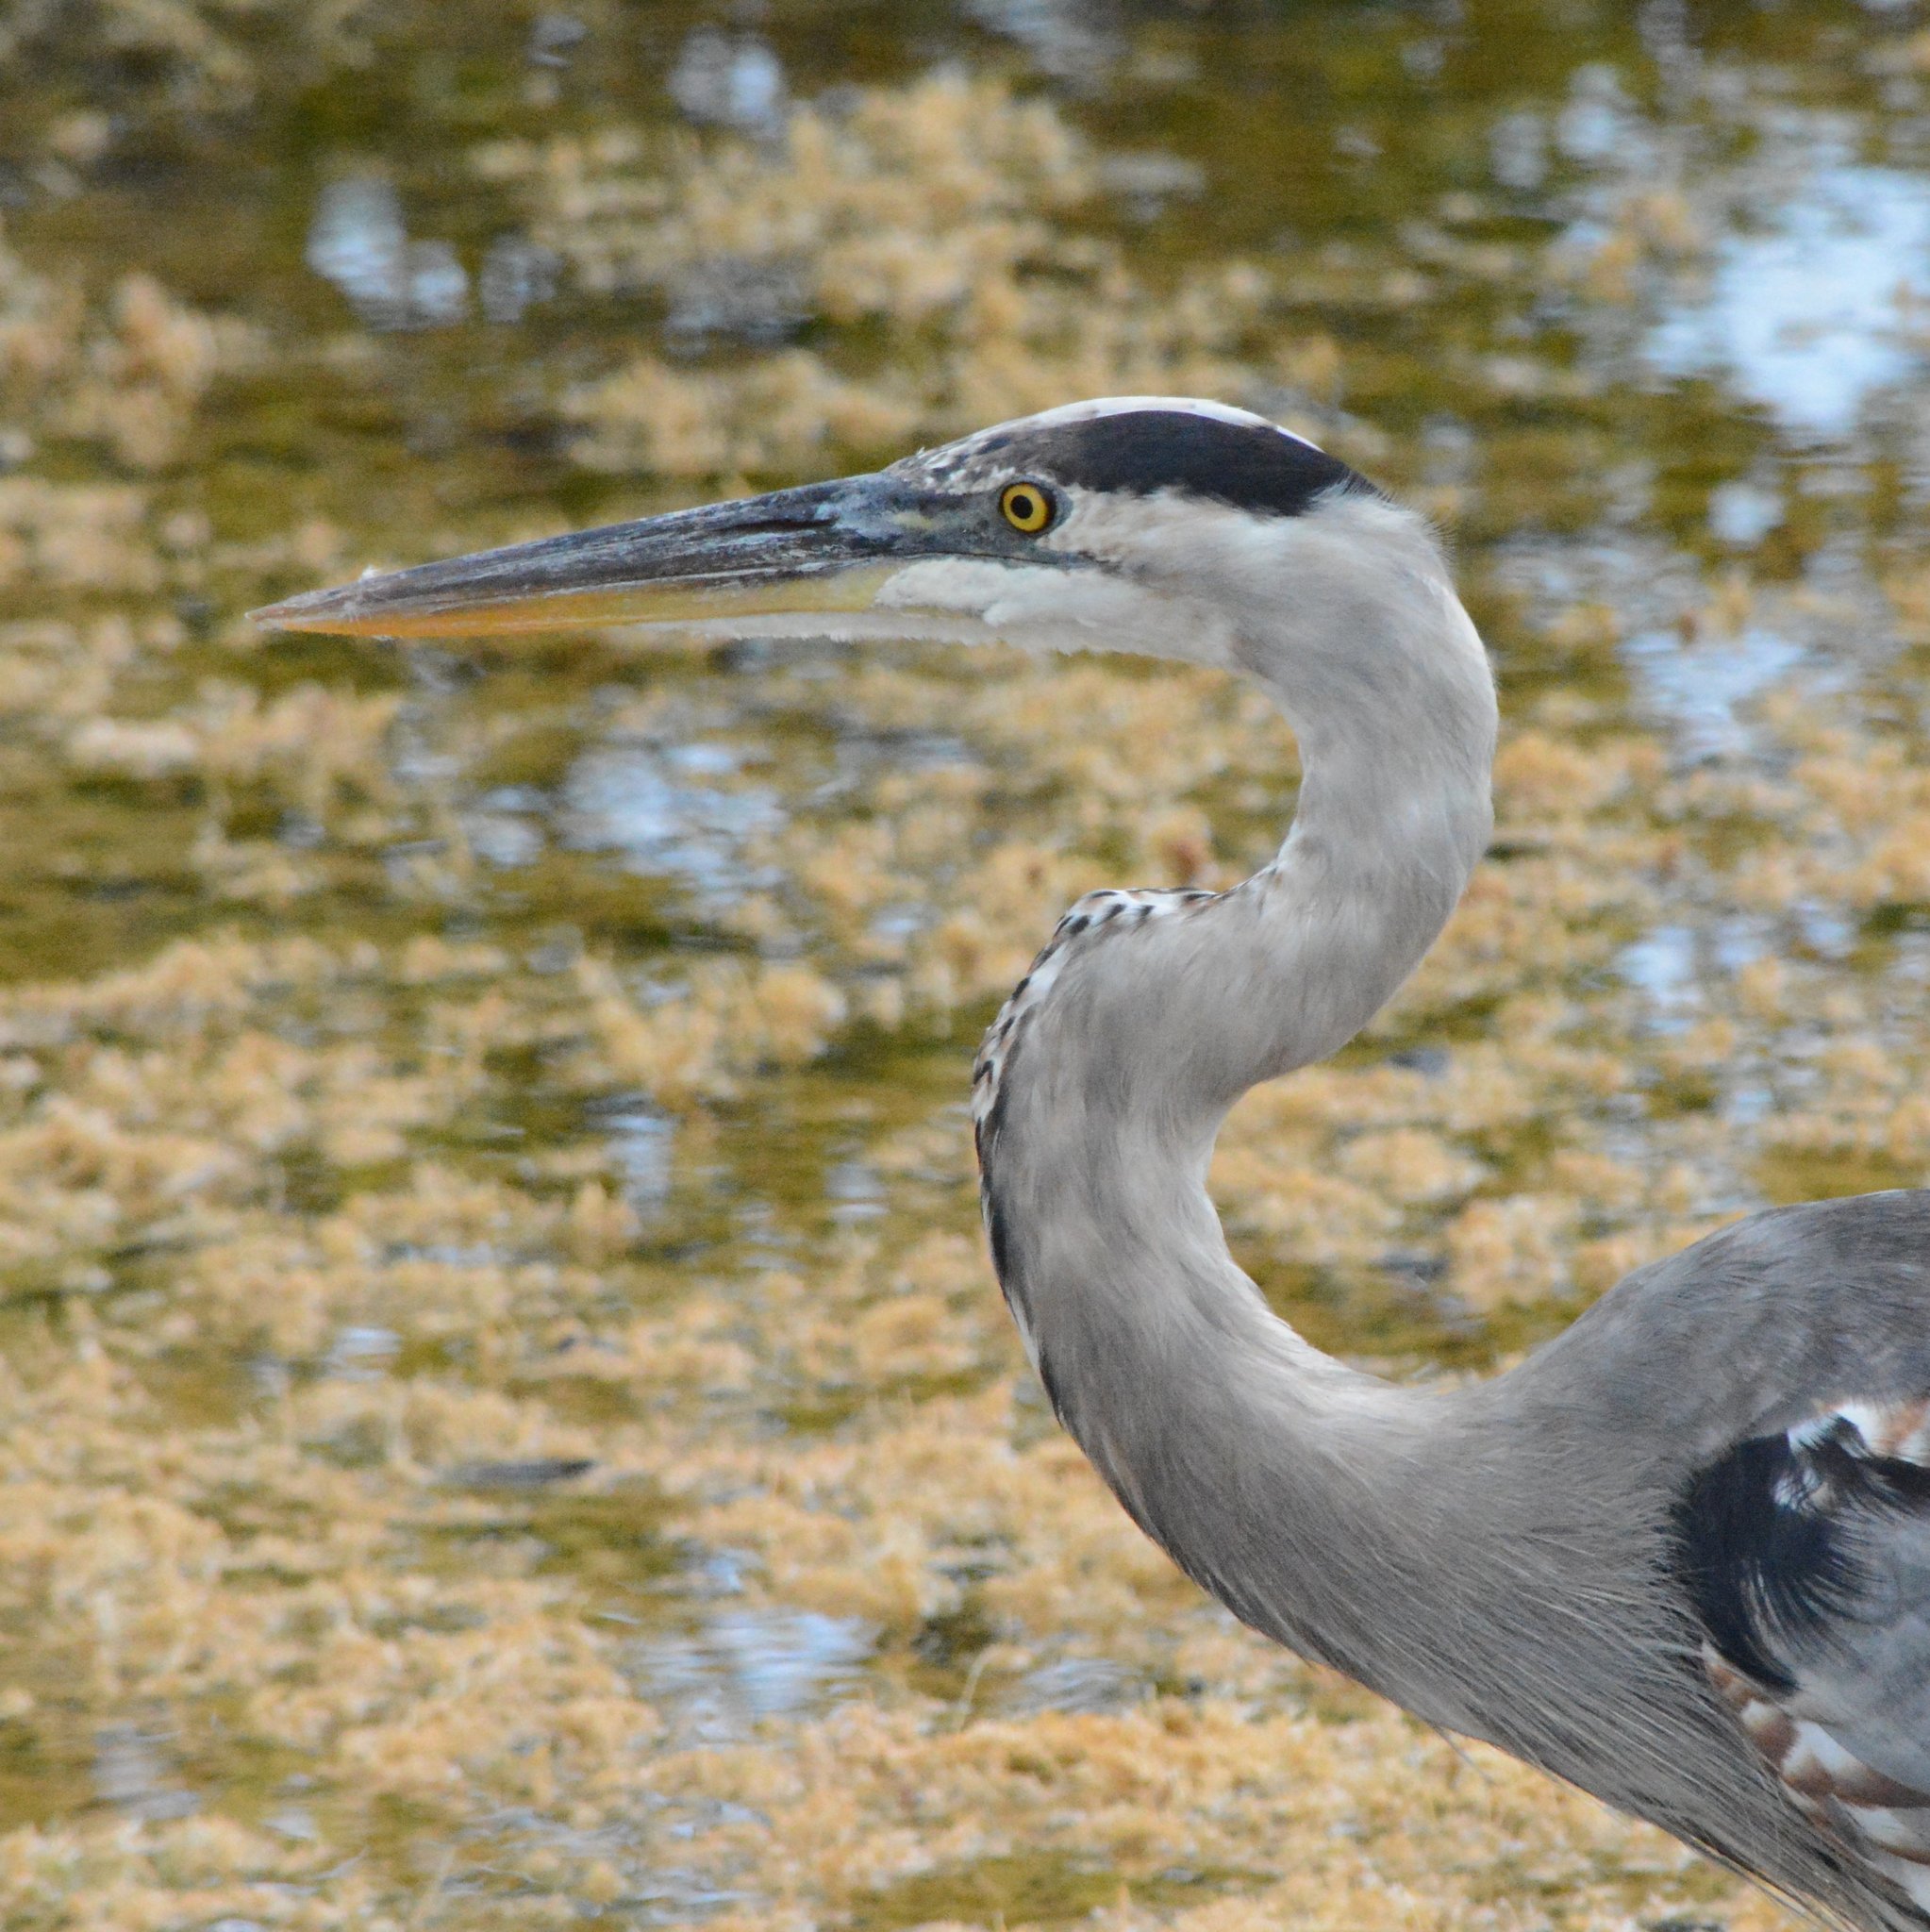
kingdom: Animalia
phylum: Chordata
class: Aves
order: Pelecaniformes
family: Ardeidae
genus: Ardea
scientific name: Ardea herodias
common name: Great blue heron
